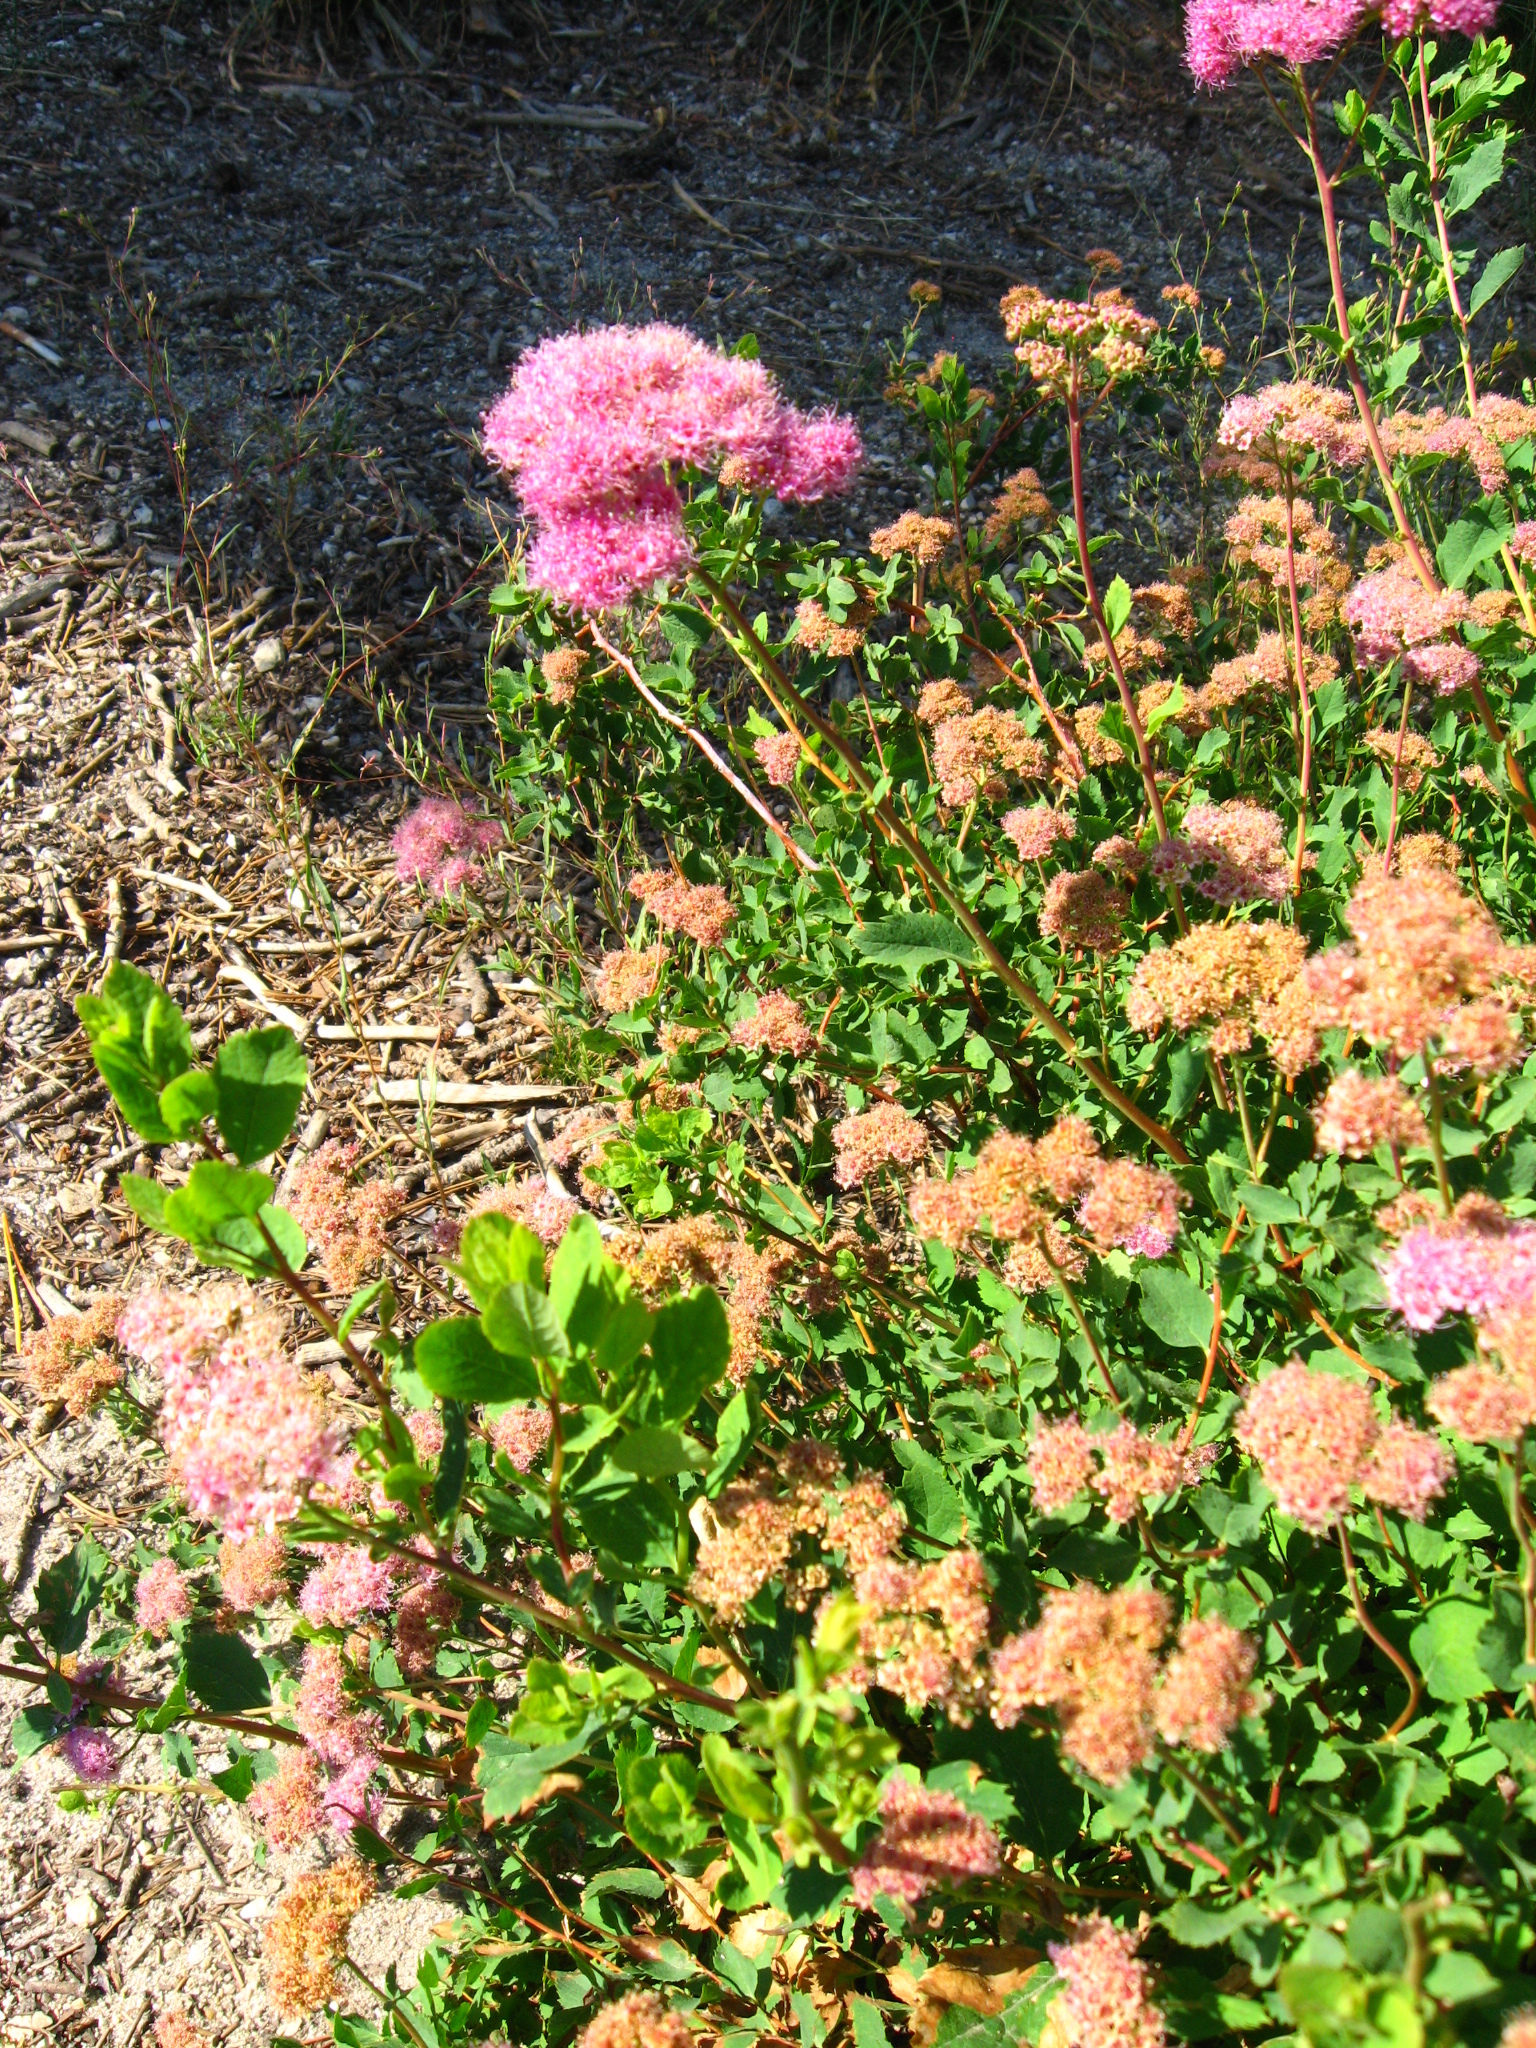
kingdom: Plantae
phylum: Tracheophyta
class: Magnoliopsida
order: Rosales
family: Rosaceae
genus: Spiraea
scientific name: Spiraea splendens
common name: Subalpine meadowsweet
